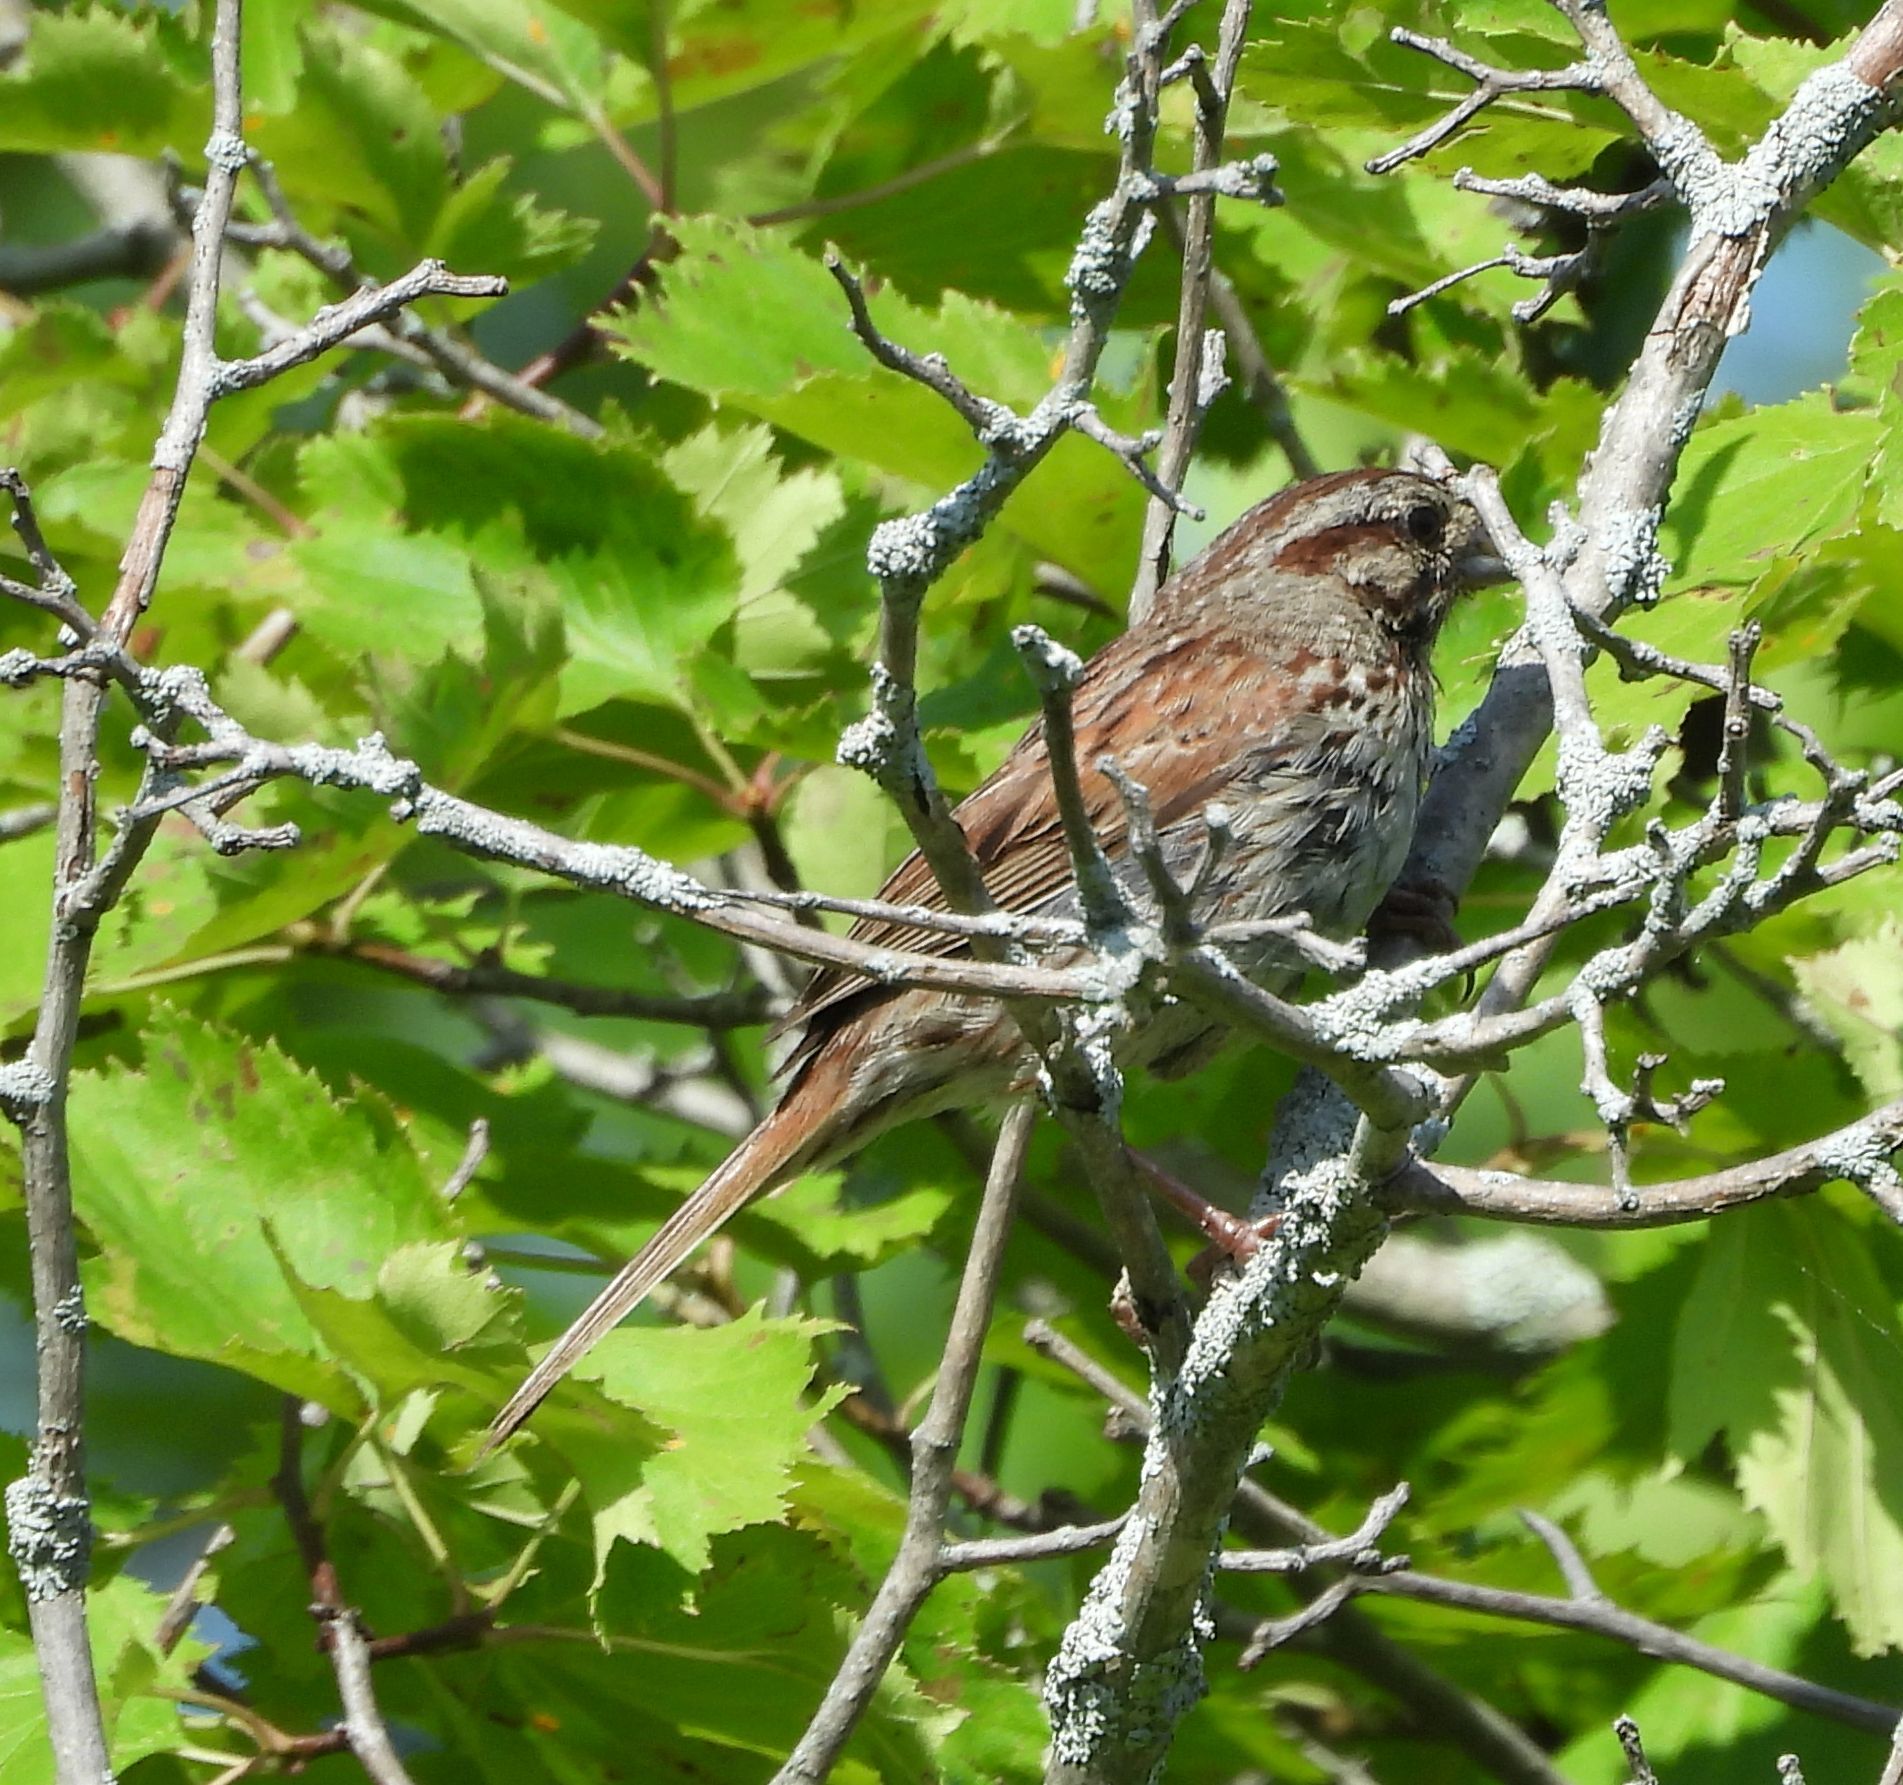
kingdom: Animalia
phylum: Chordata
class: Aves
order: Passeriformes
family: Passerellidae
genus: Melospiza
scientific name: Melospiza melodia
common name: Song sparrow
